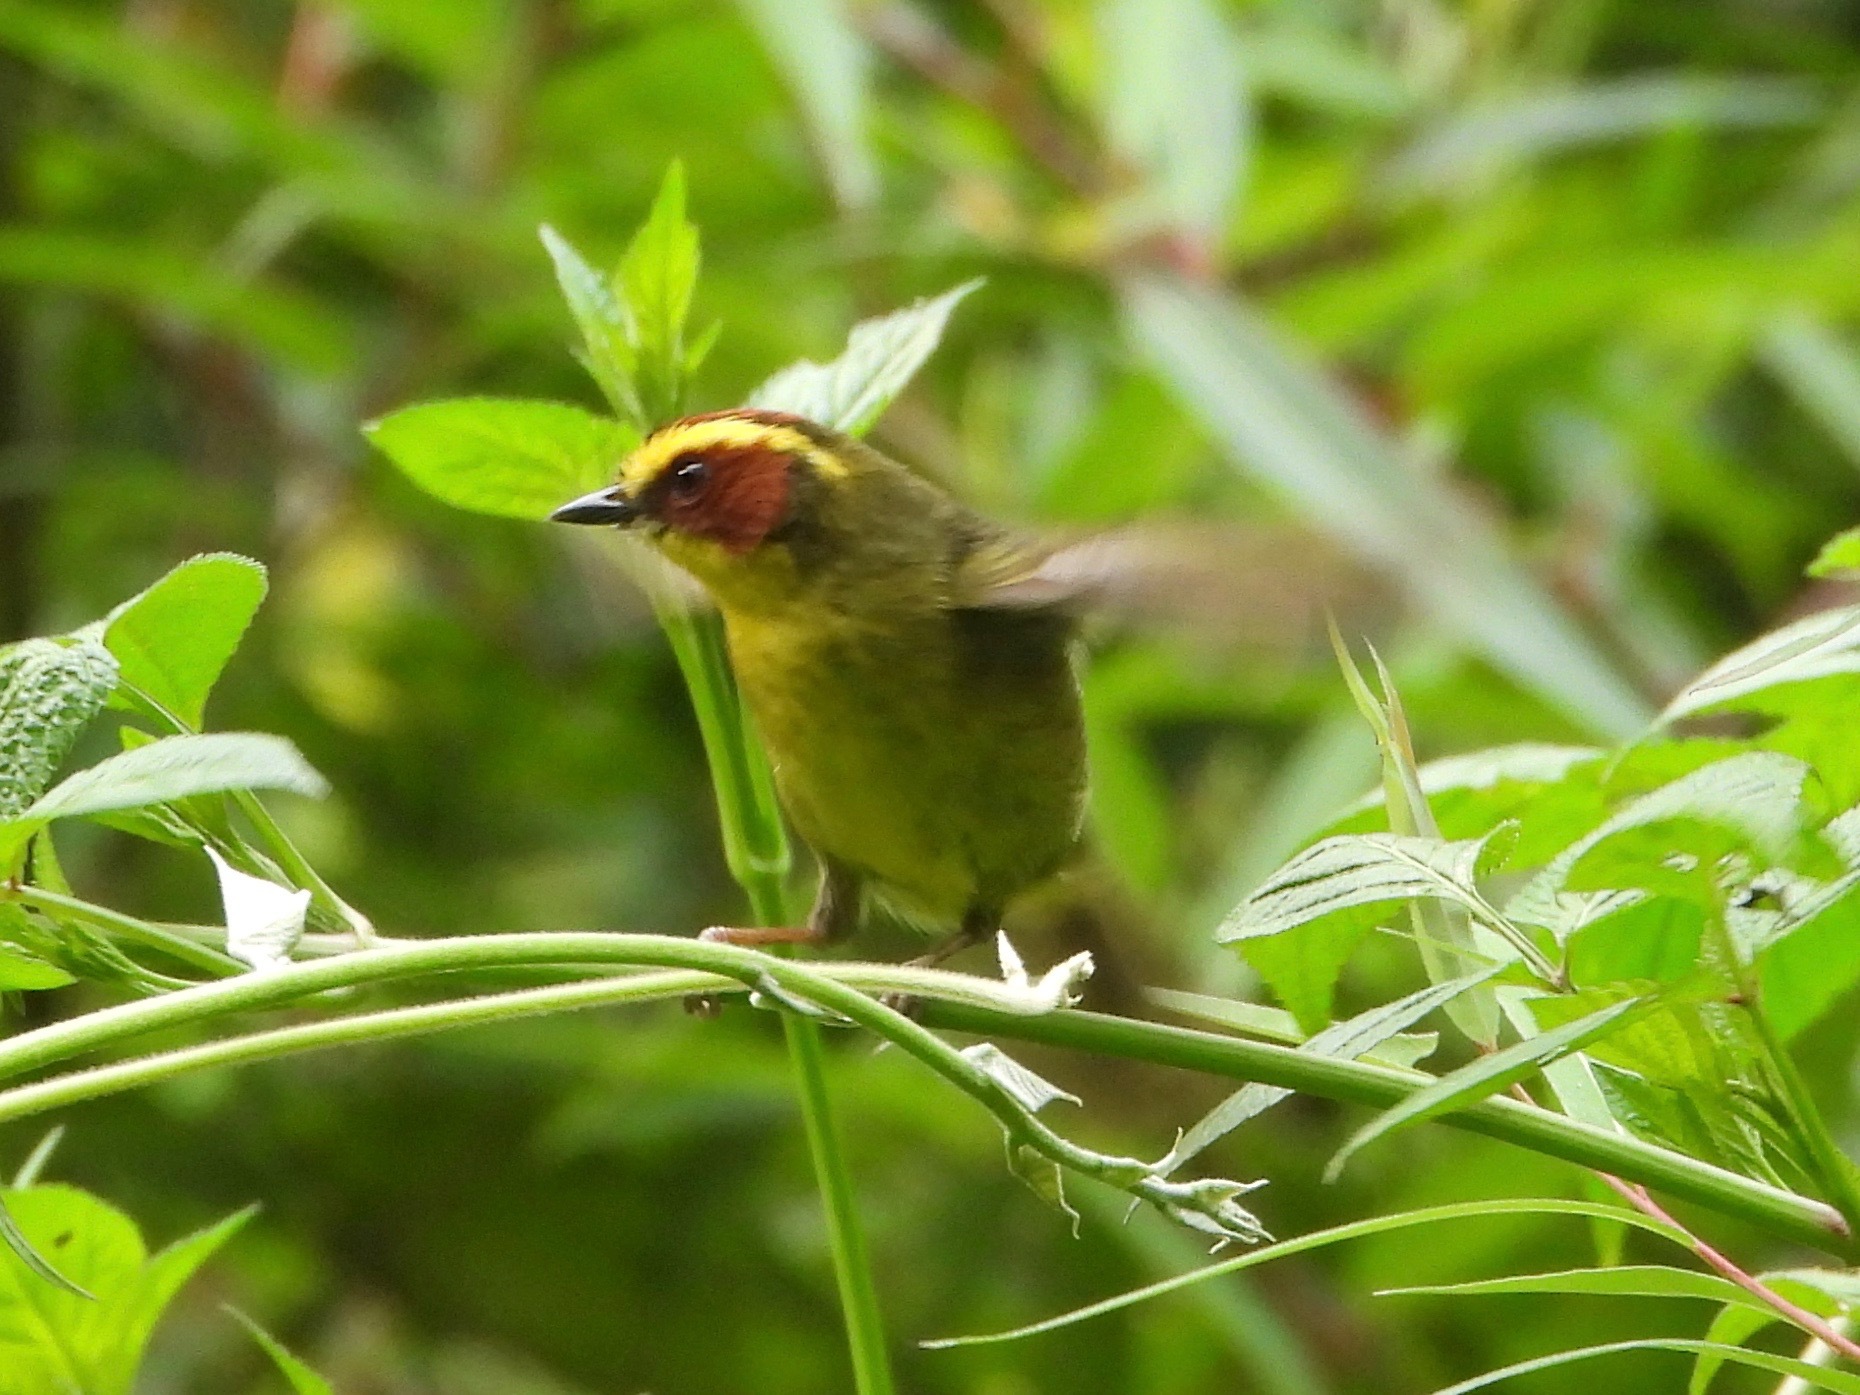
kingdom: Animalia
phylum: Chordata
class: Aves
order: Passeriformes
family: Parulidae
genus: Basileuterus
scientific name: Basileuterus belli
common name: Golden-browed warbler
